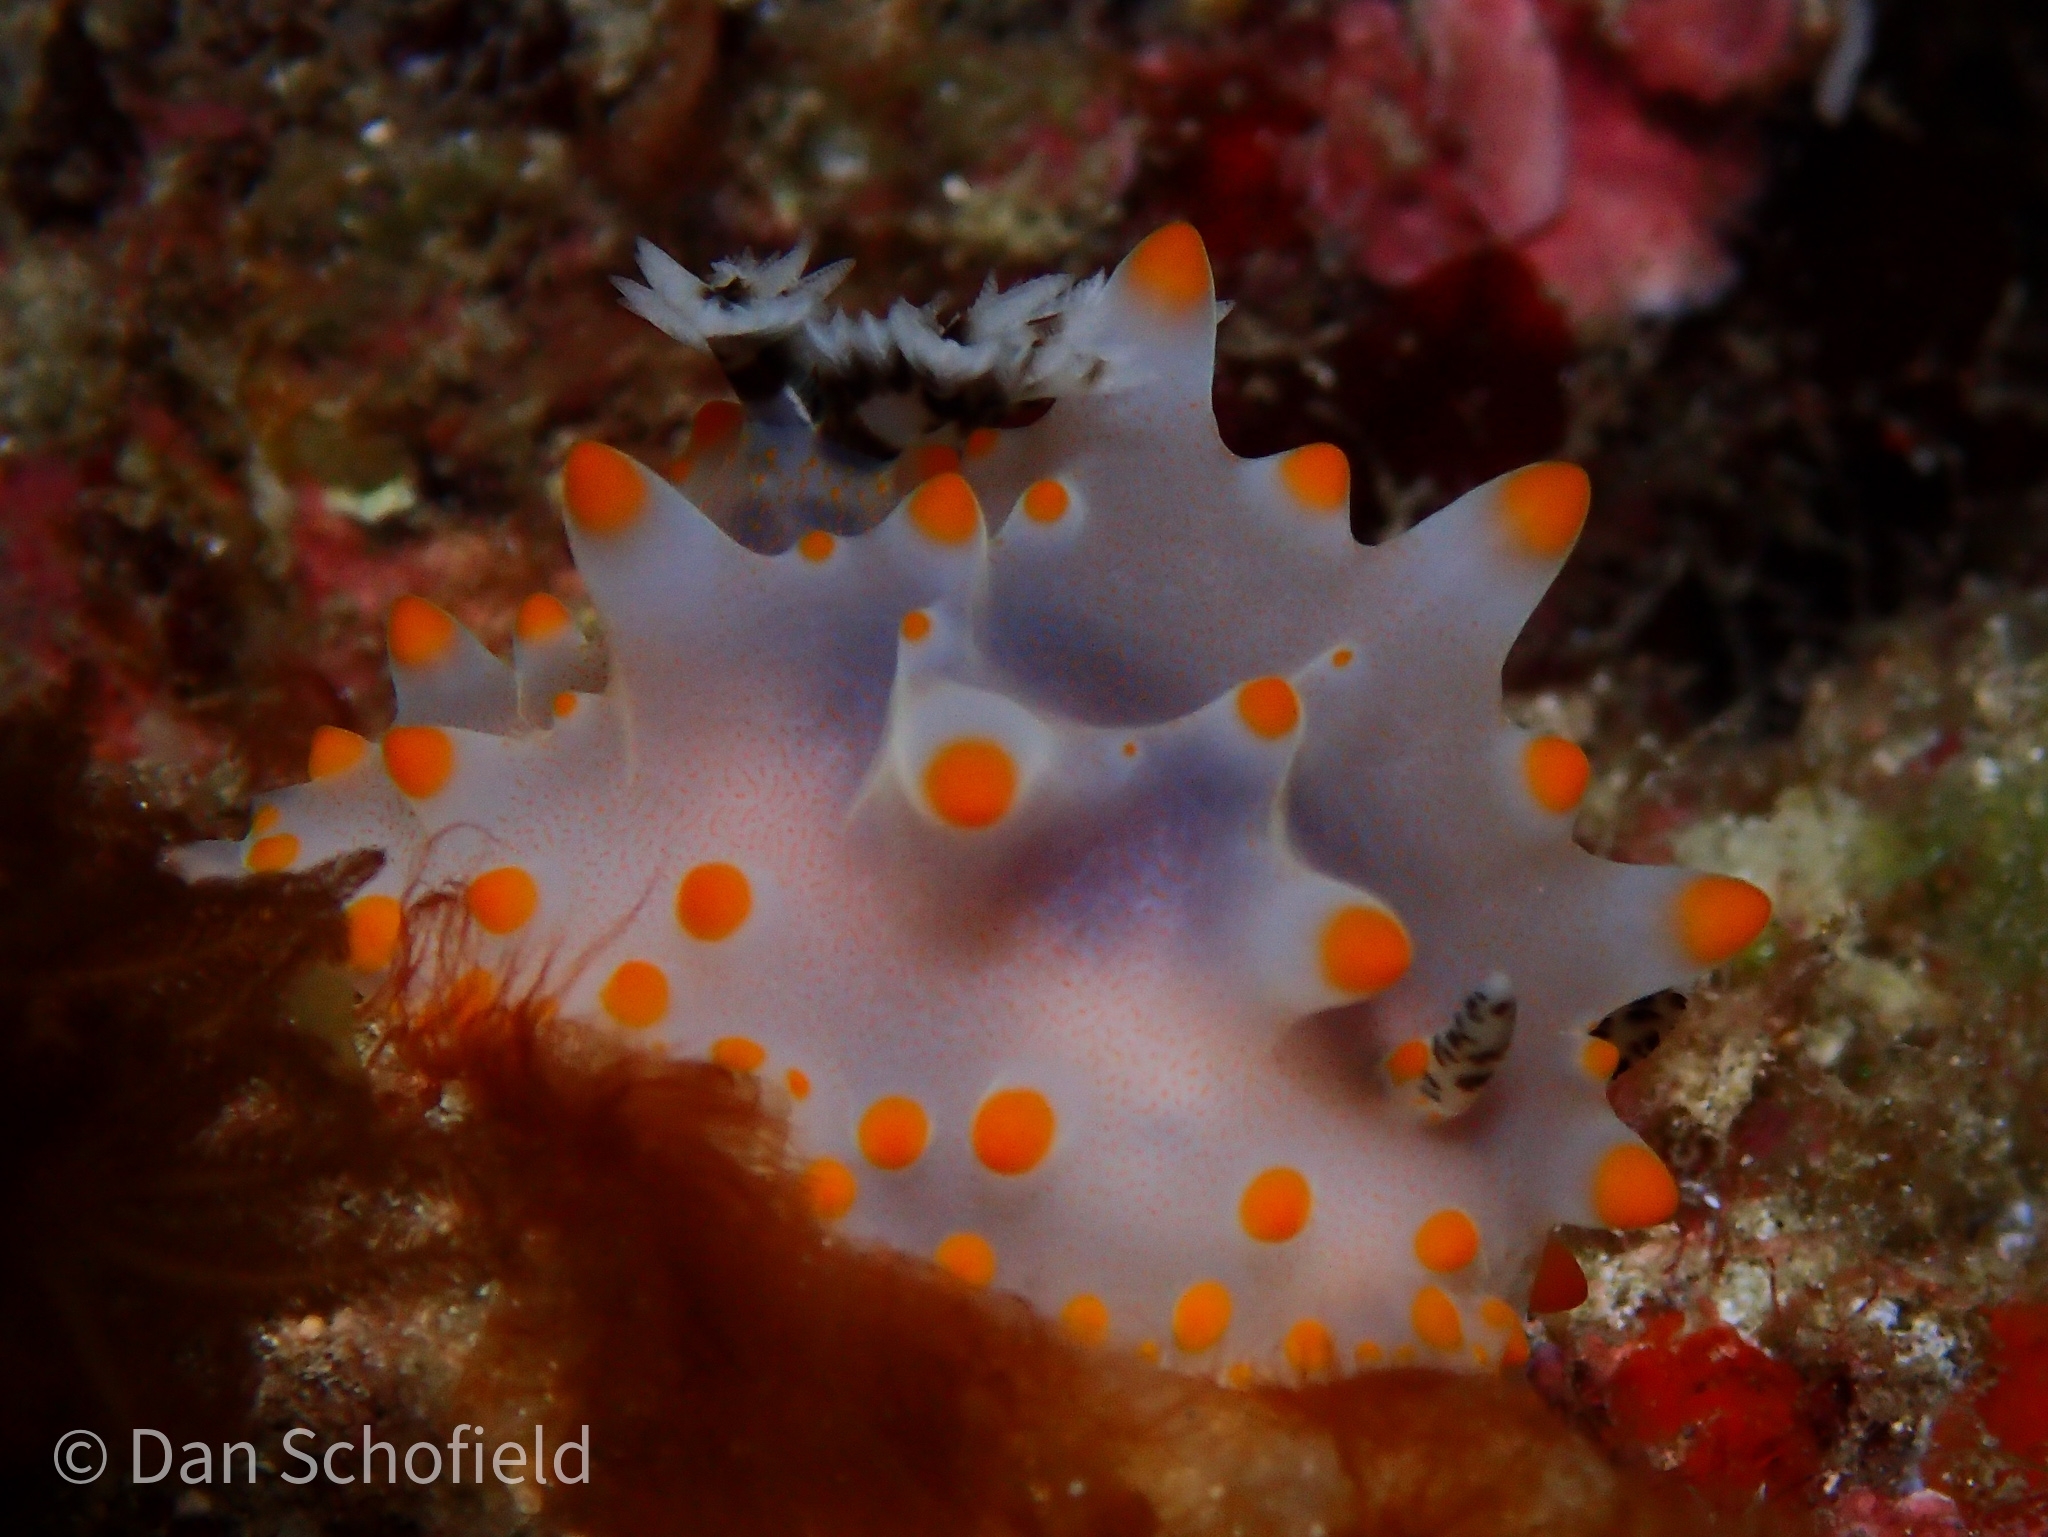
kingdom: Animalia
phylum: Mollusca
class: Gastropoda
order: Nudibranchia
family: Discodorididae
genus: Halgerda
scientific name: Halgerda carlsoni
